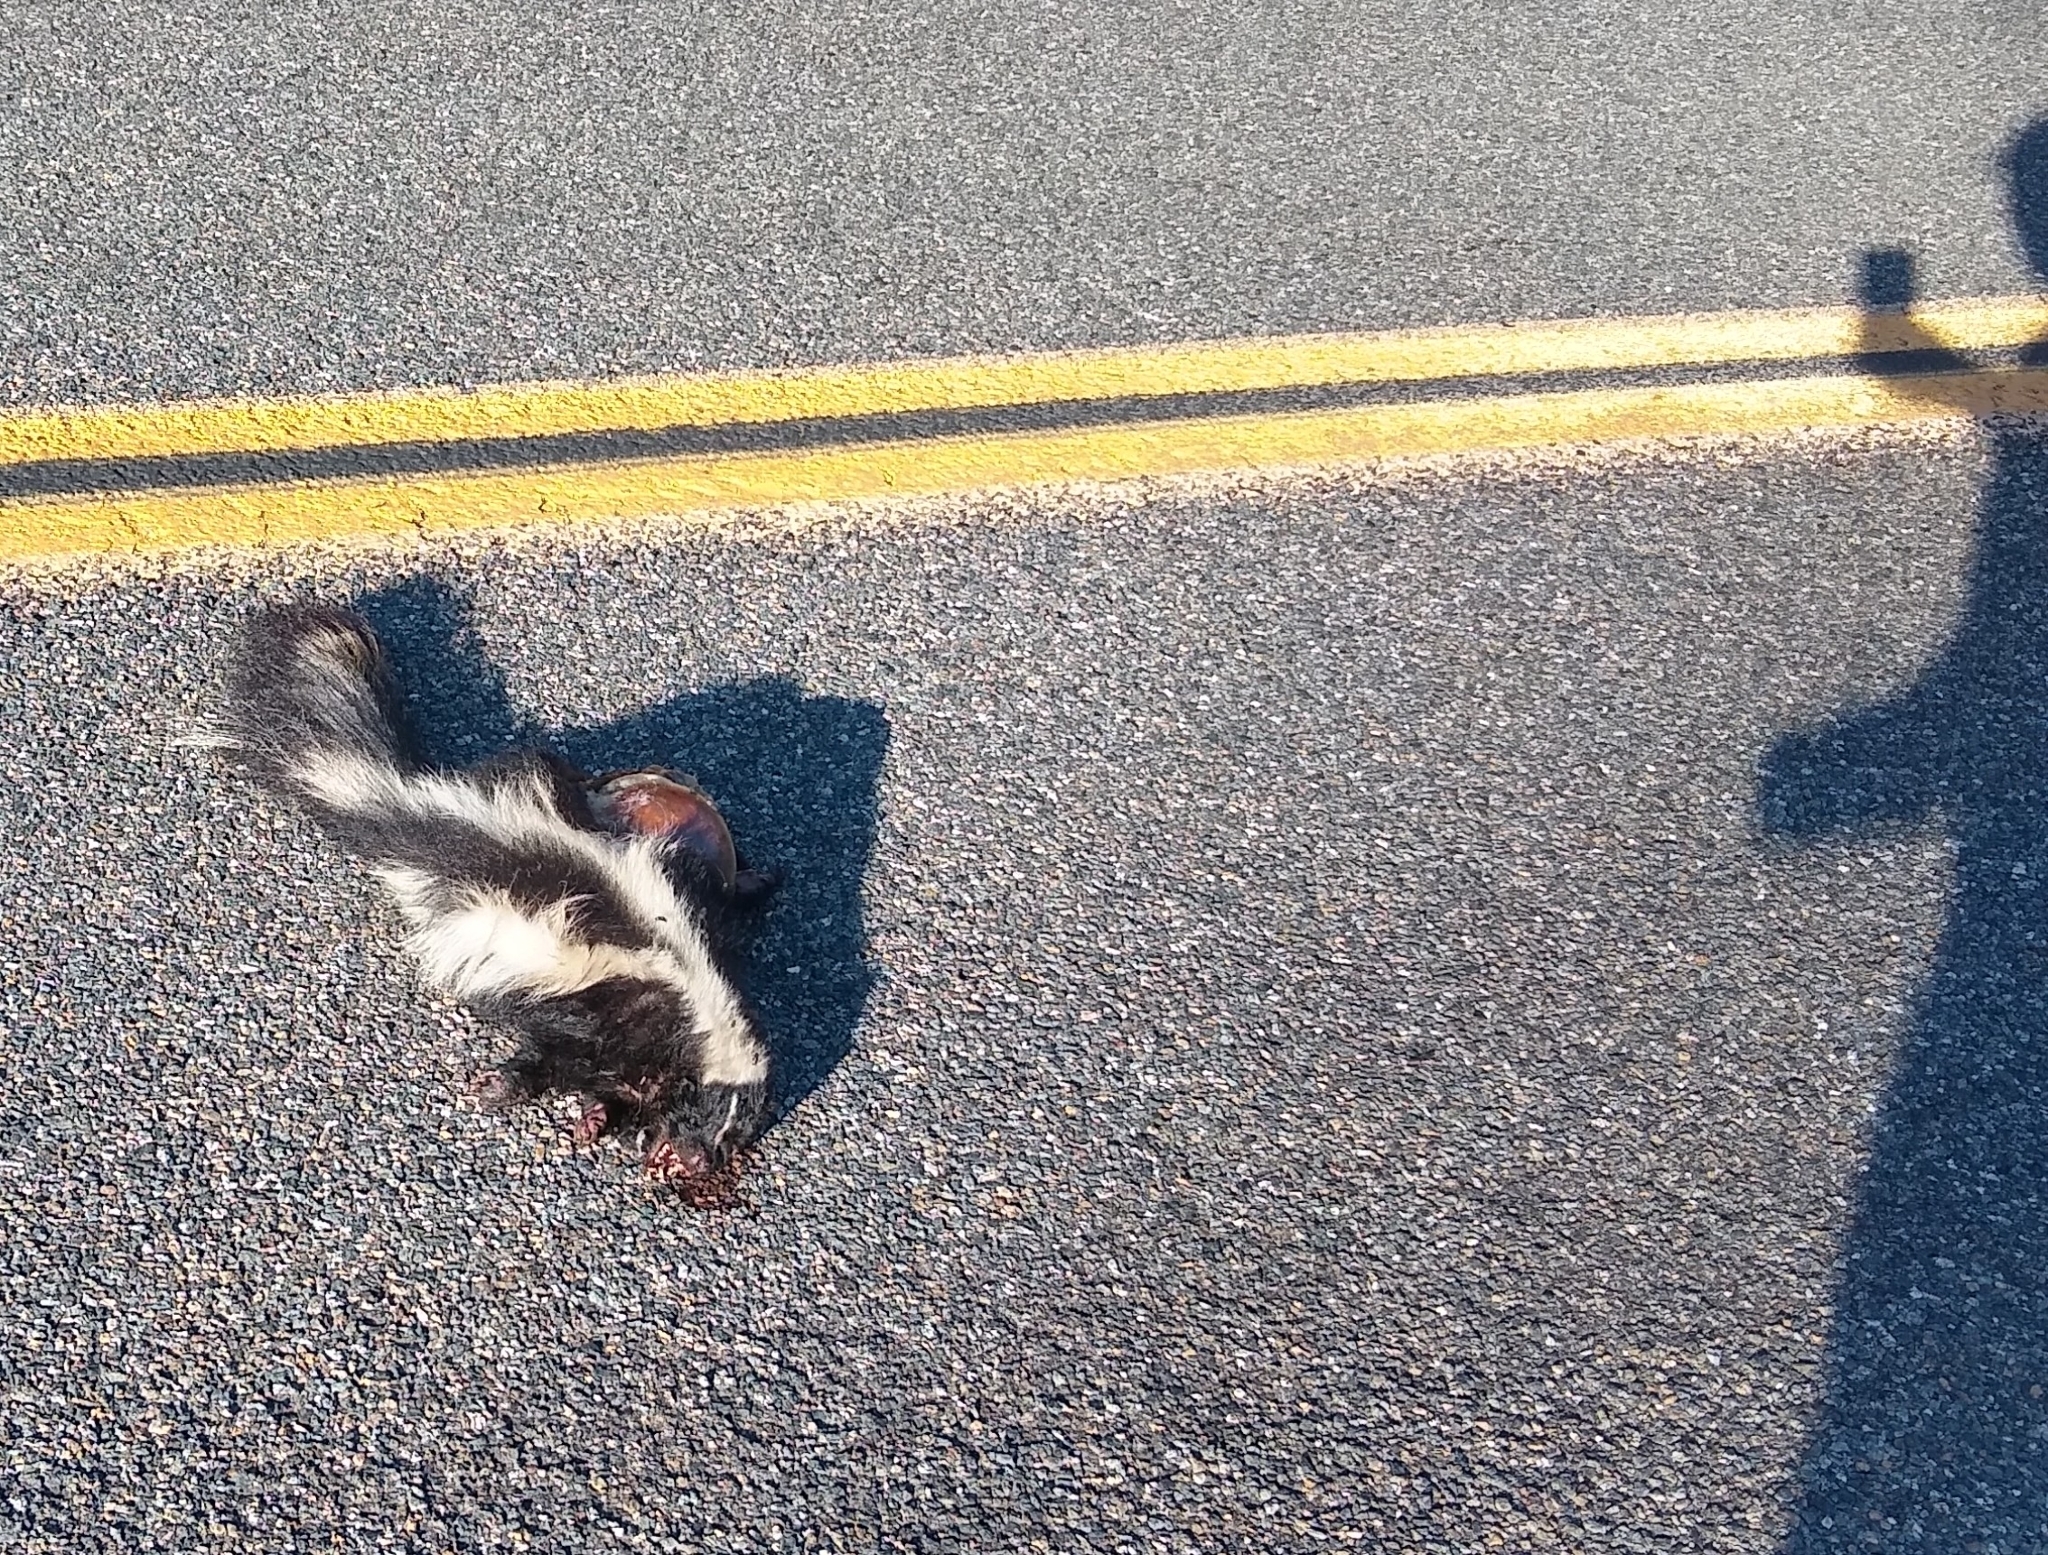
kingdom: Animalia
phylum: Chordata
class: Mammalia
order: Carnivora
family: Mephitidae
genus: Mephitis
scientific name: Mephitis mephitis
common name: Striped skunk
